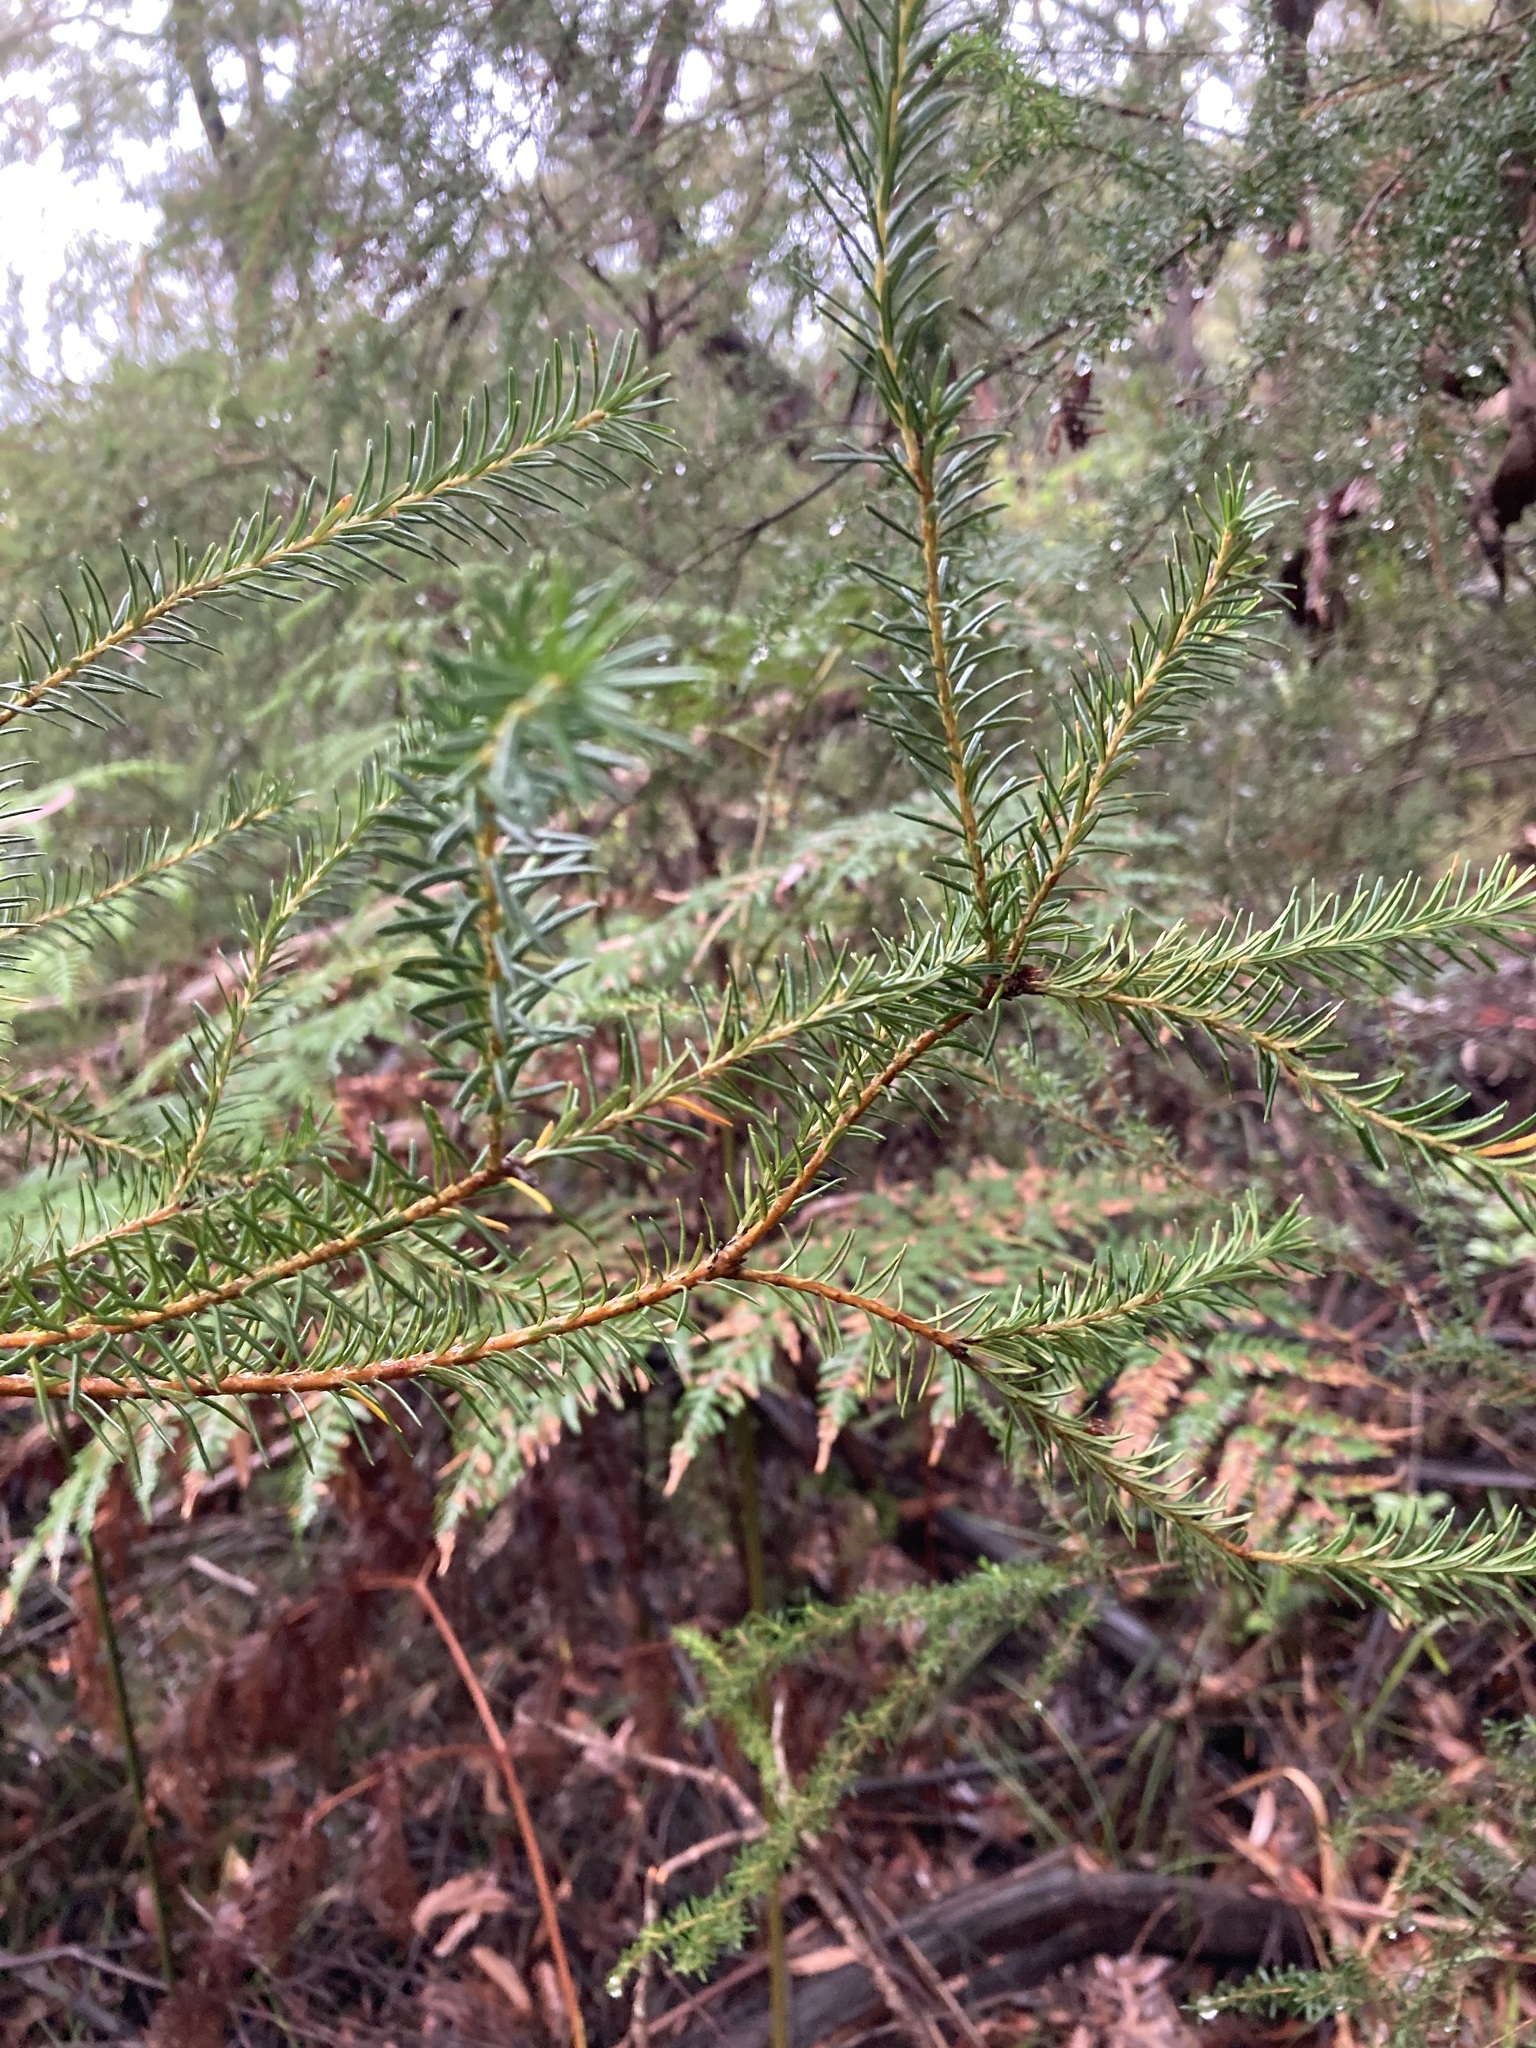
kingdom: Plantae
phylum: Tracheophyta
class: Magnoliopsida
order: Proteales
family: Proteaceae
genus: Banksia
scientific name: Banksia ericifolia
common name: Heath-leaf banksia
